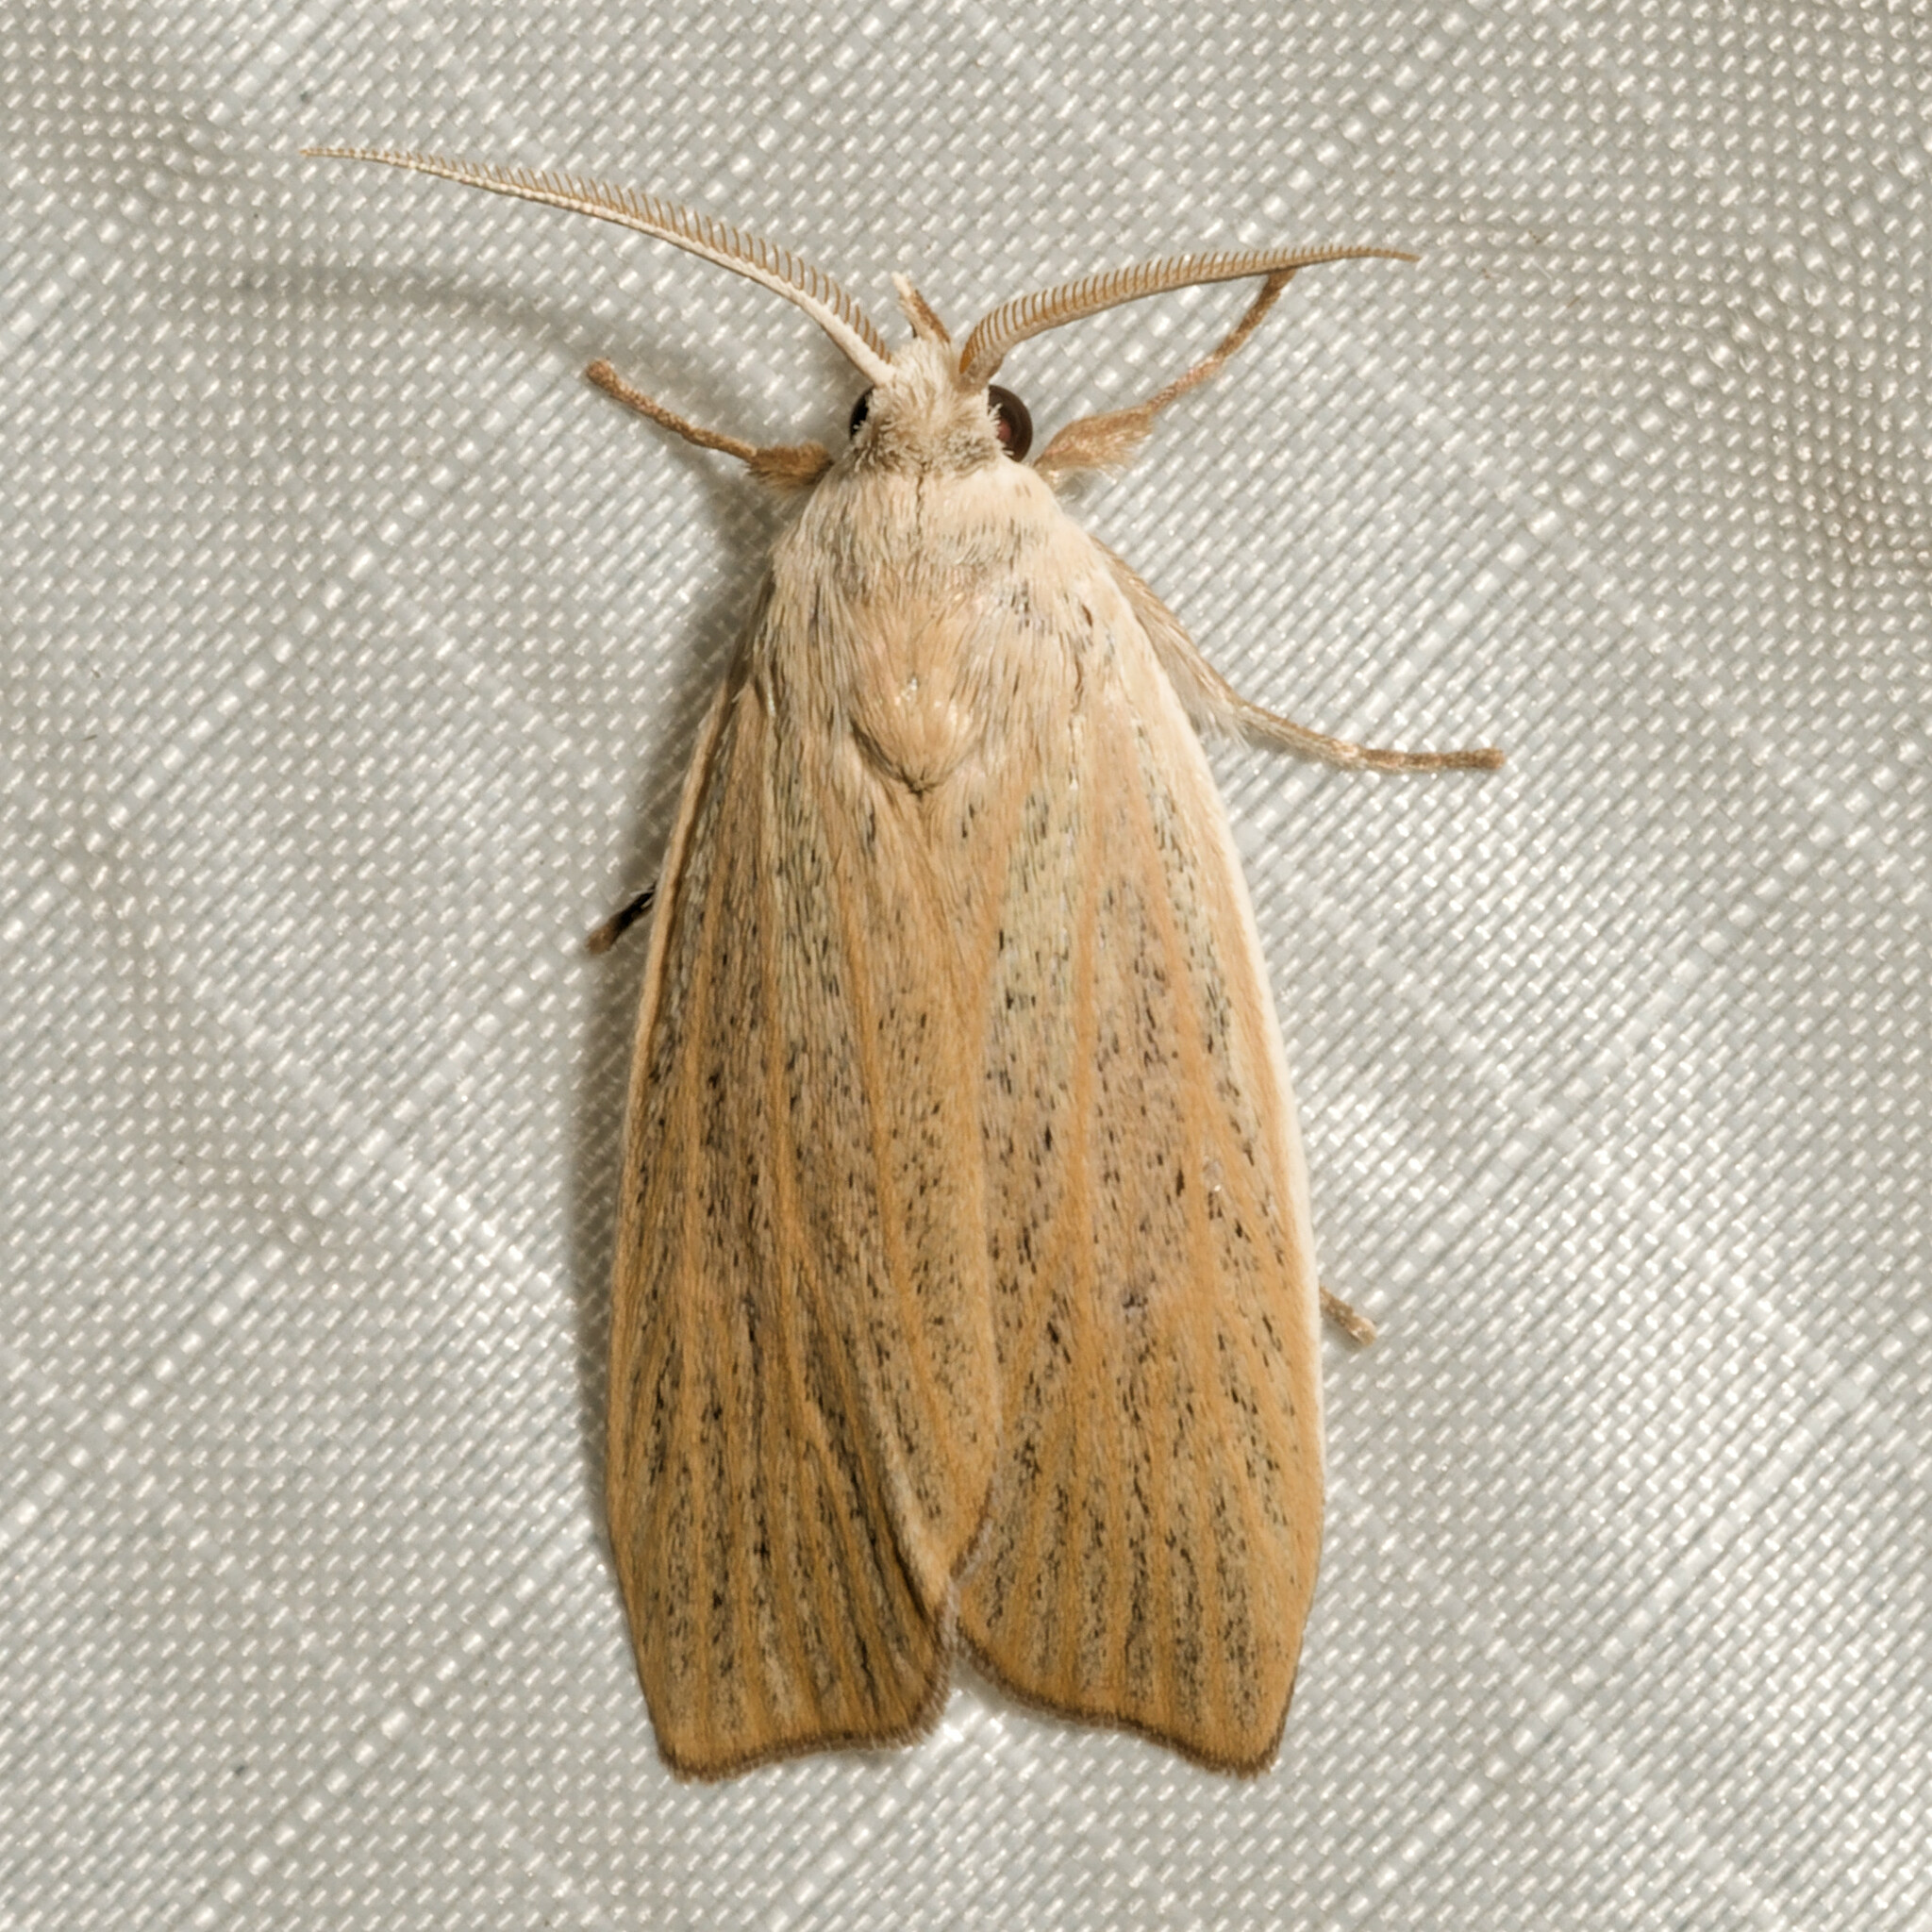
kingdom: Animalia
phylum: Arthropoda
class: Insecta
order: Lepidoptera
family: Erebidae
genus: Palpidia
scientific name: Palpidia pallidior
